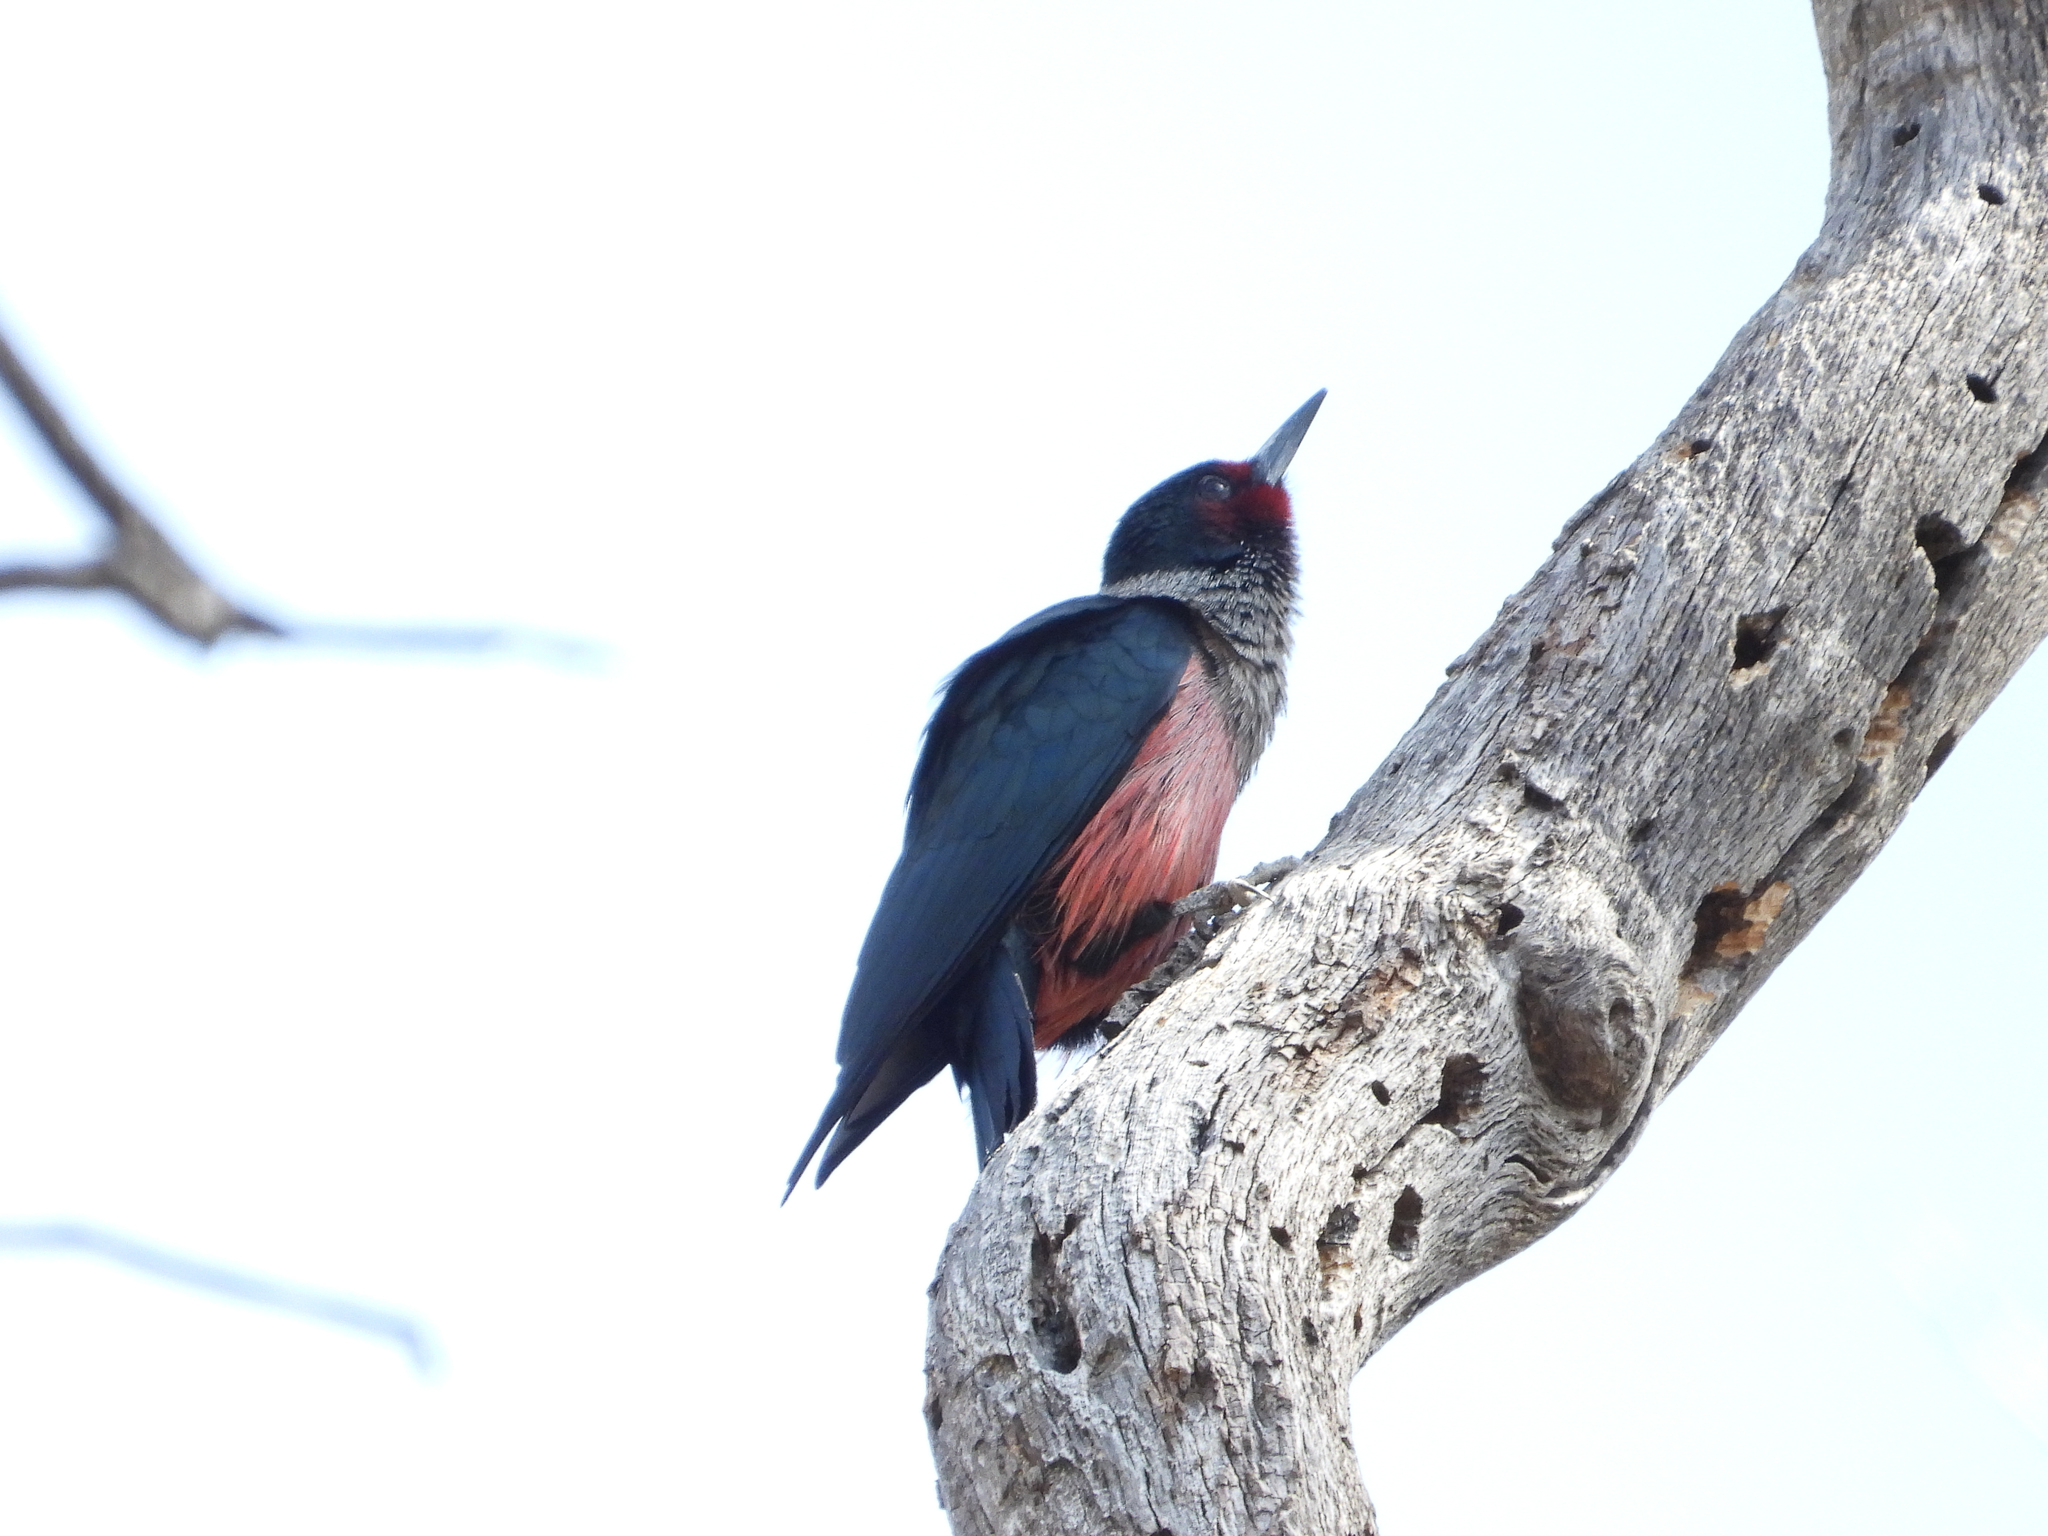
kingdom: Animalia
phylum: Chordata
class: Aves
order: Piciformes
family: Picidae
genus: Melanerpes
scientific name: Melanerpes lewis
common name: Lewis's woodpecker
